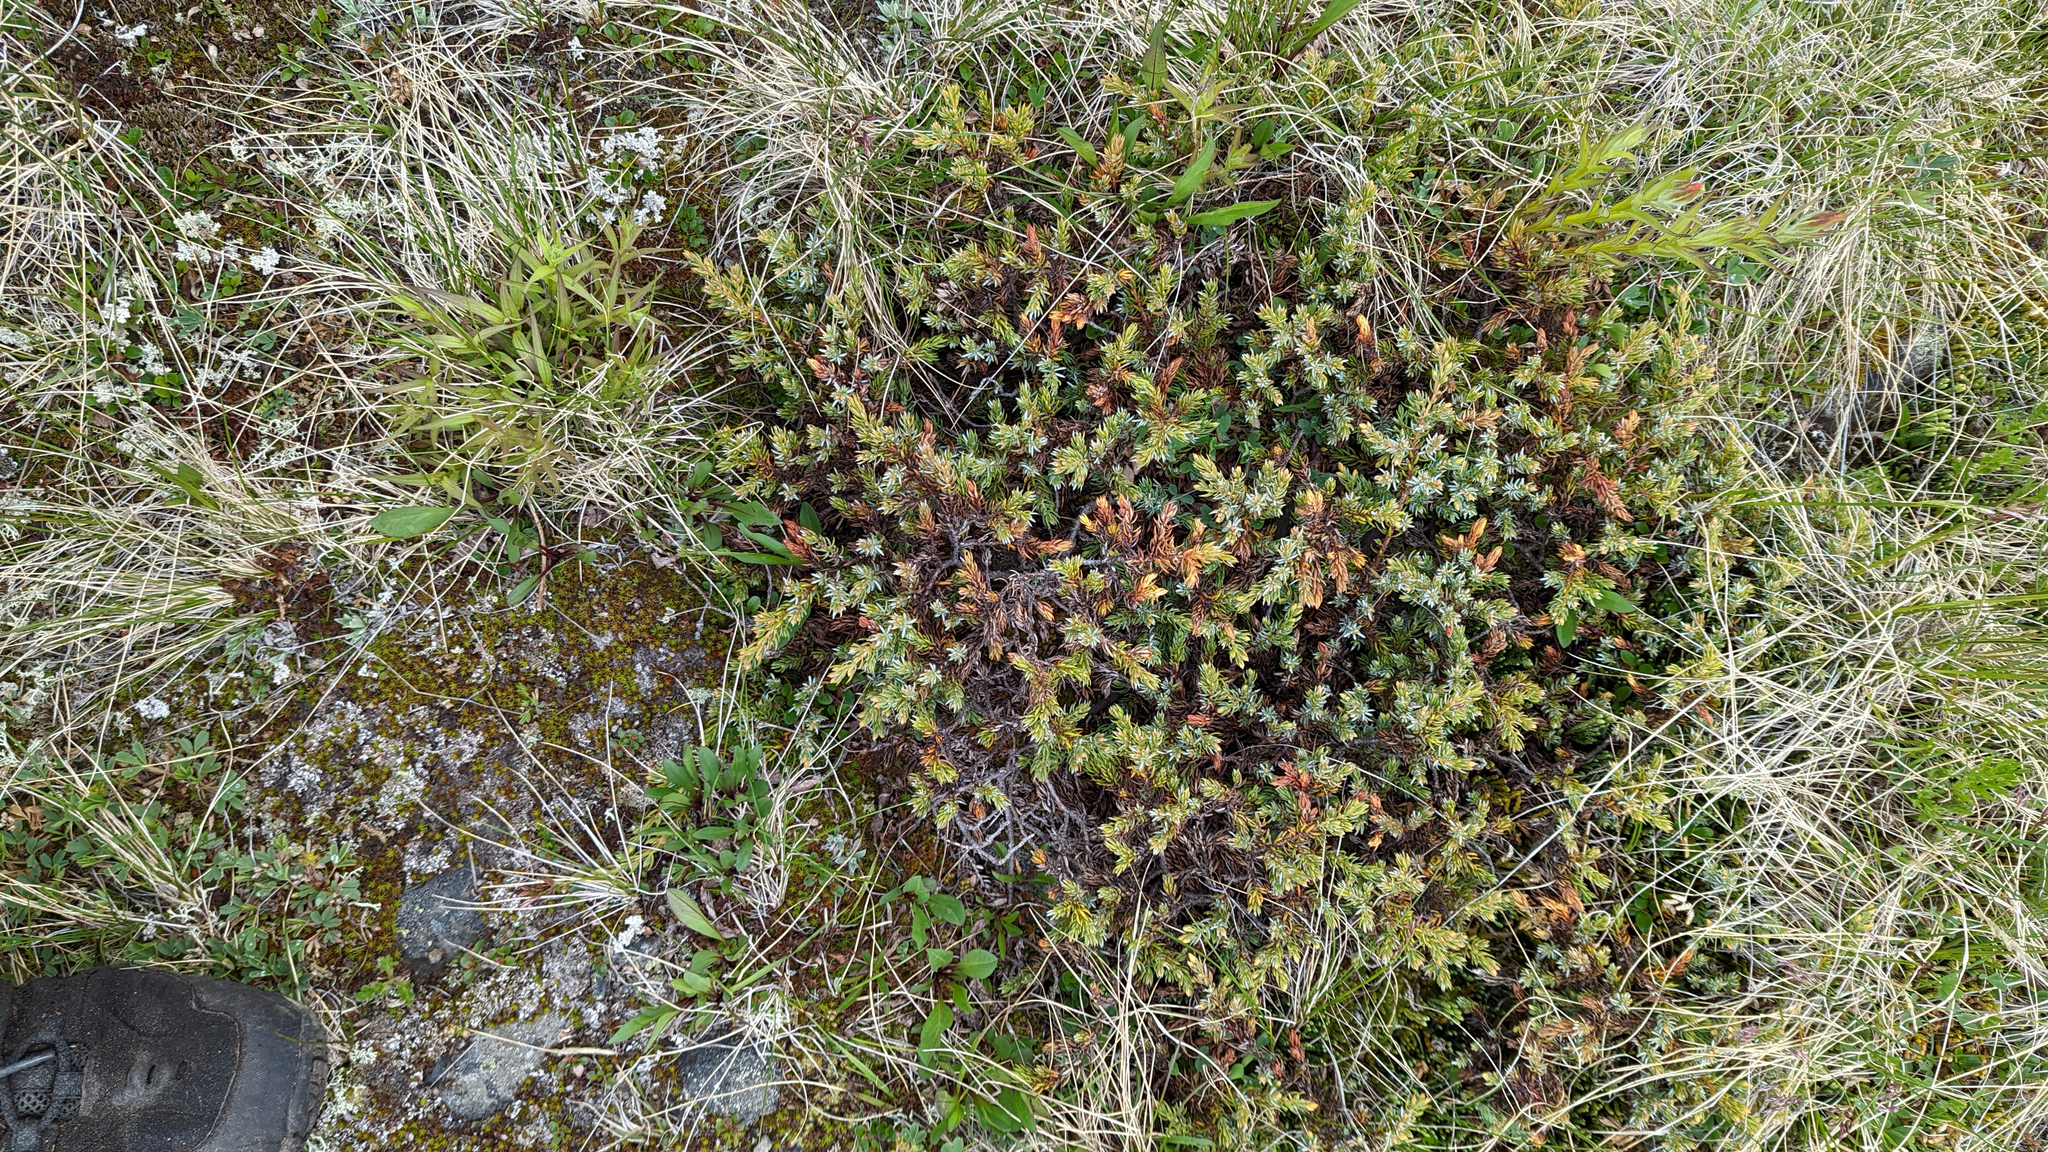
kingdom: Plantae
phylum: Tracheophyta
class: Pinopsida
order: Pinales
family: Cupressaceae
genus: Juniperus
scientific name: Juniperus communis
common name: Common juniper
